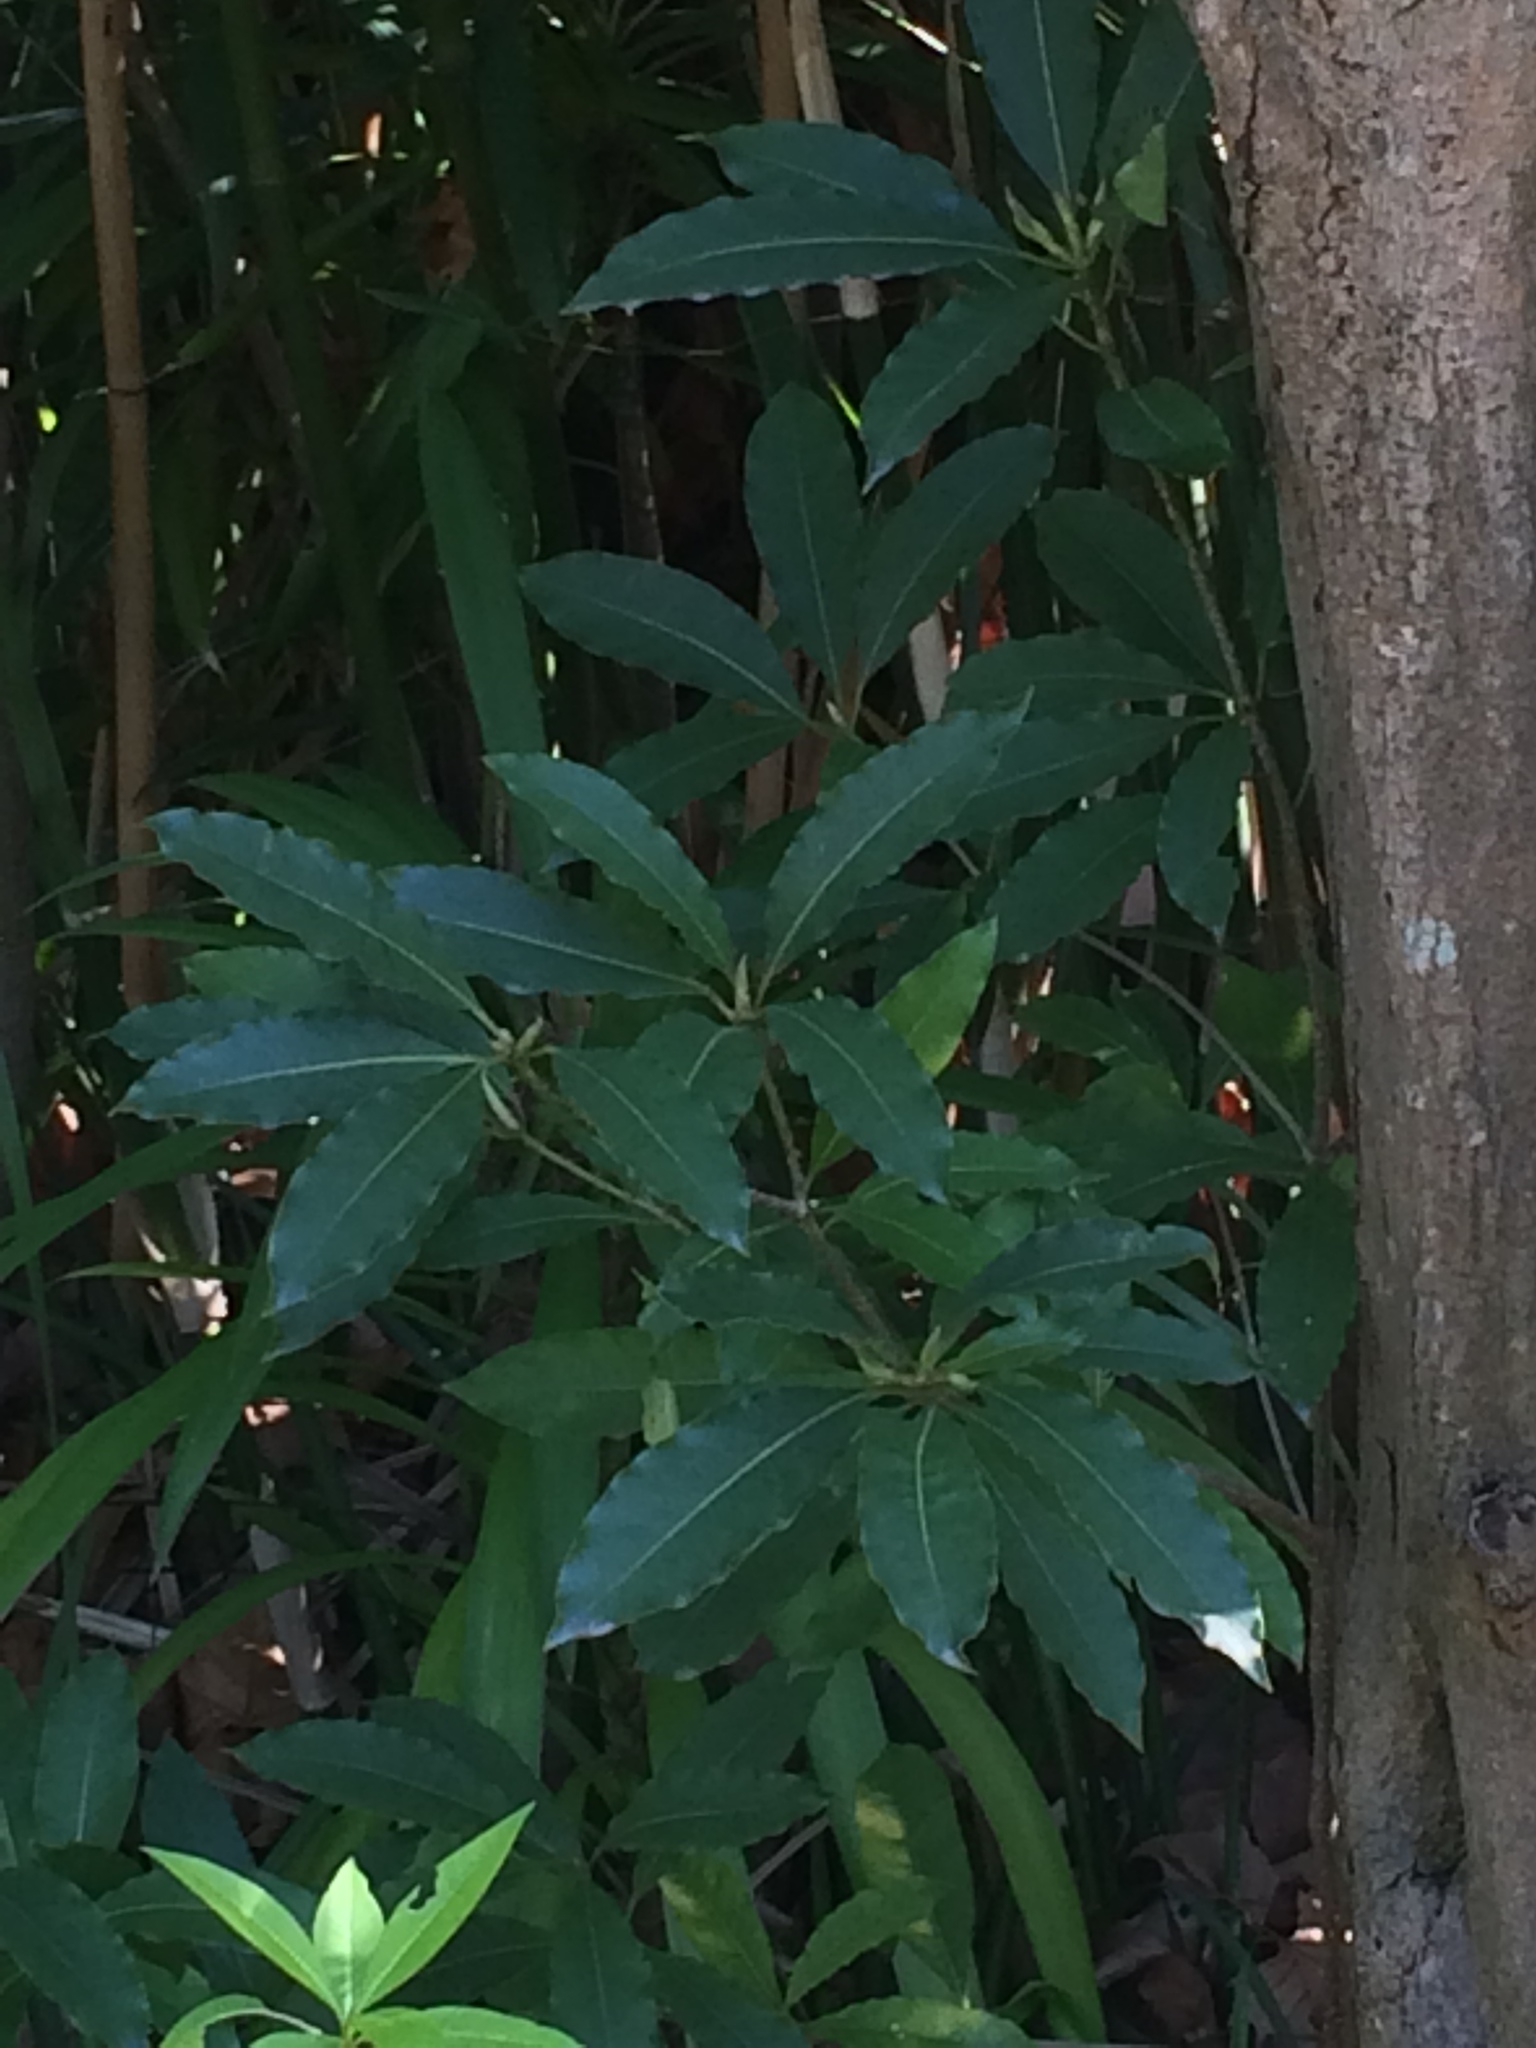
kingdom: Plantae
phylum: Tracheophyta
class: Magnoliopsida
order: Apiales
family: Pittosporaceae
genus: Pittosporum
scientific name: Pittosporum undulatum
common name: Australian cheesewood
